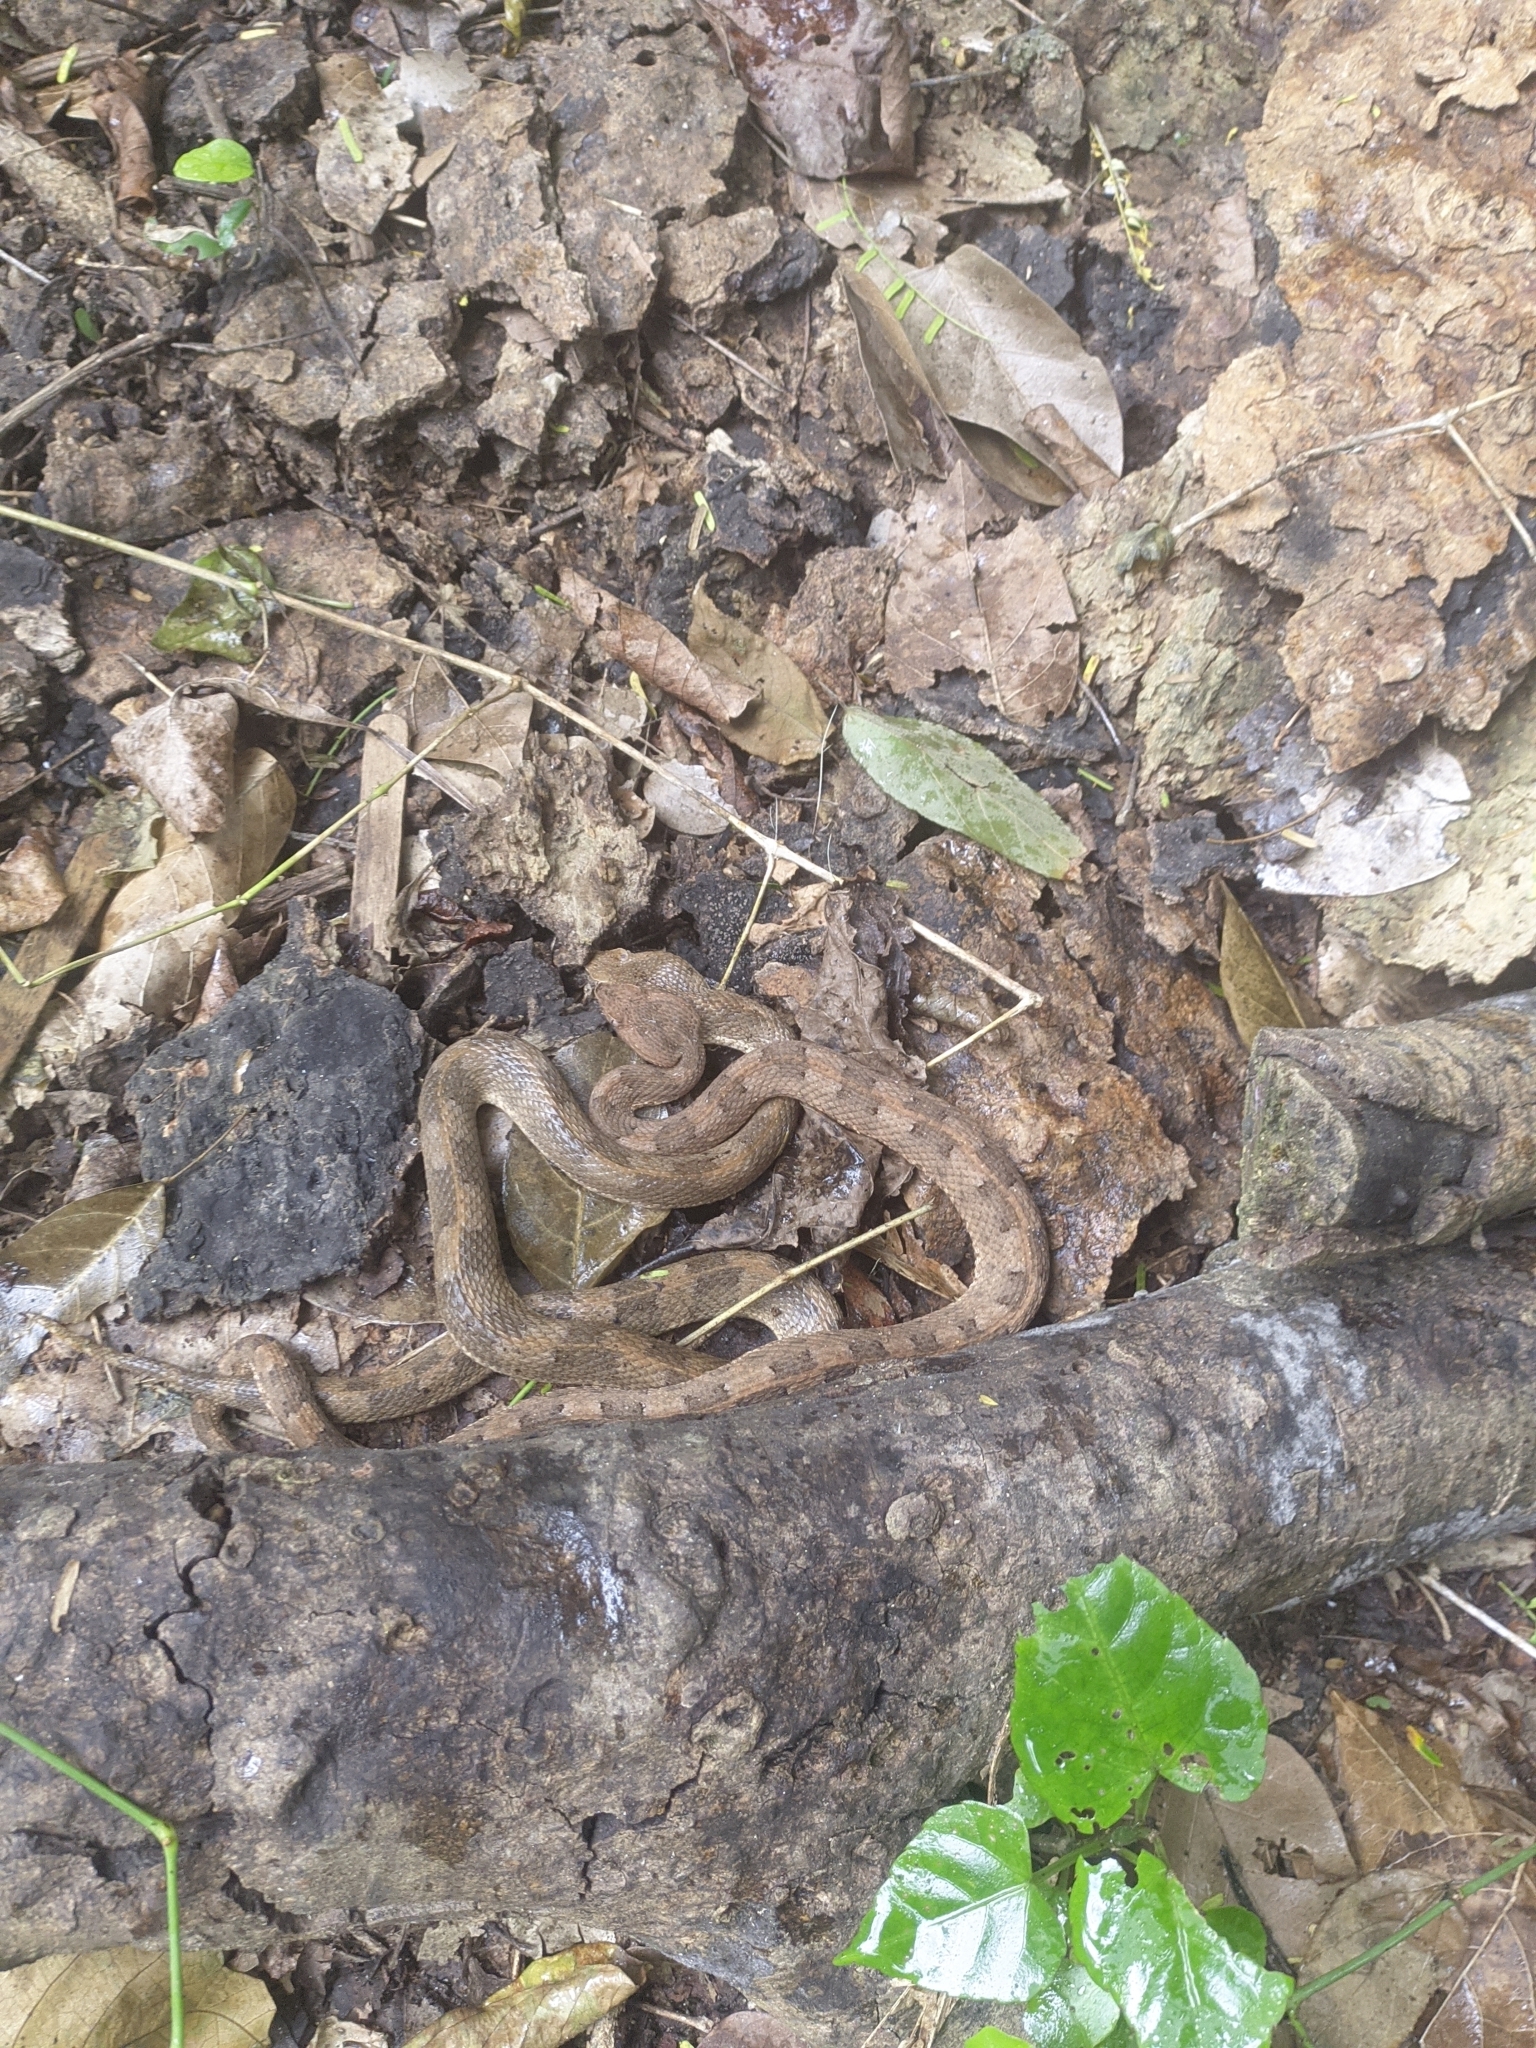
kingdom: Animalia
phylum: Chordata
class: Squamata
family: Viperidae
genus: Porthidium
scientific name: Porthidium lansbergii
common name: Lansberg's hognosed pit viper
